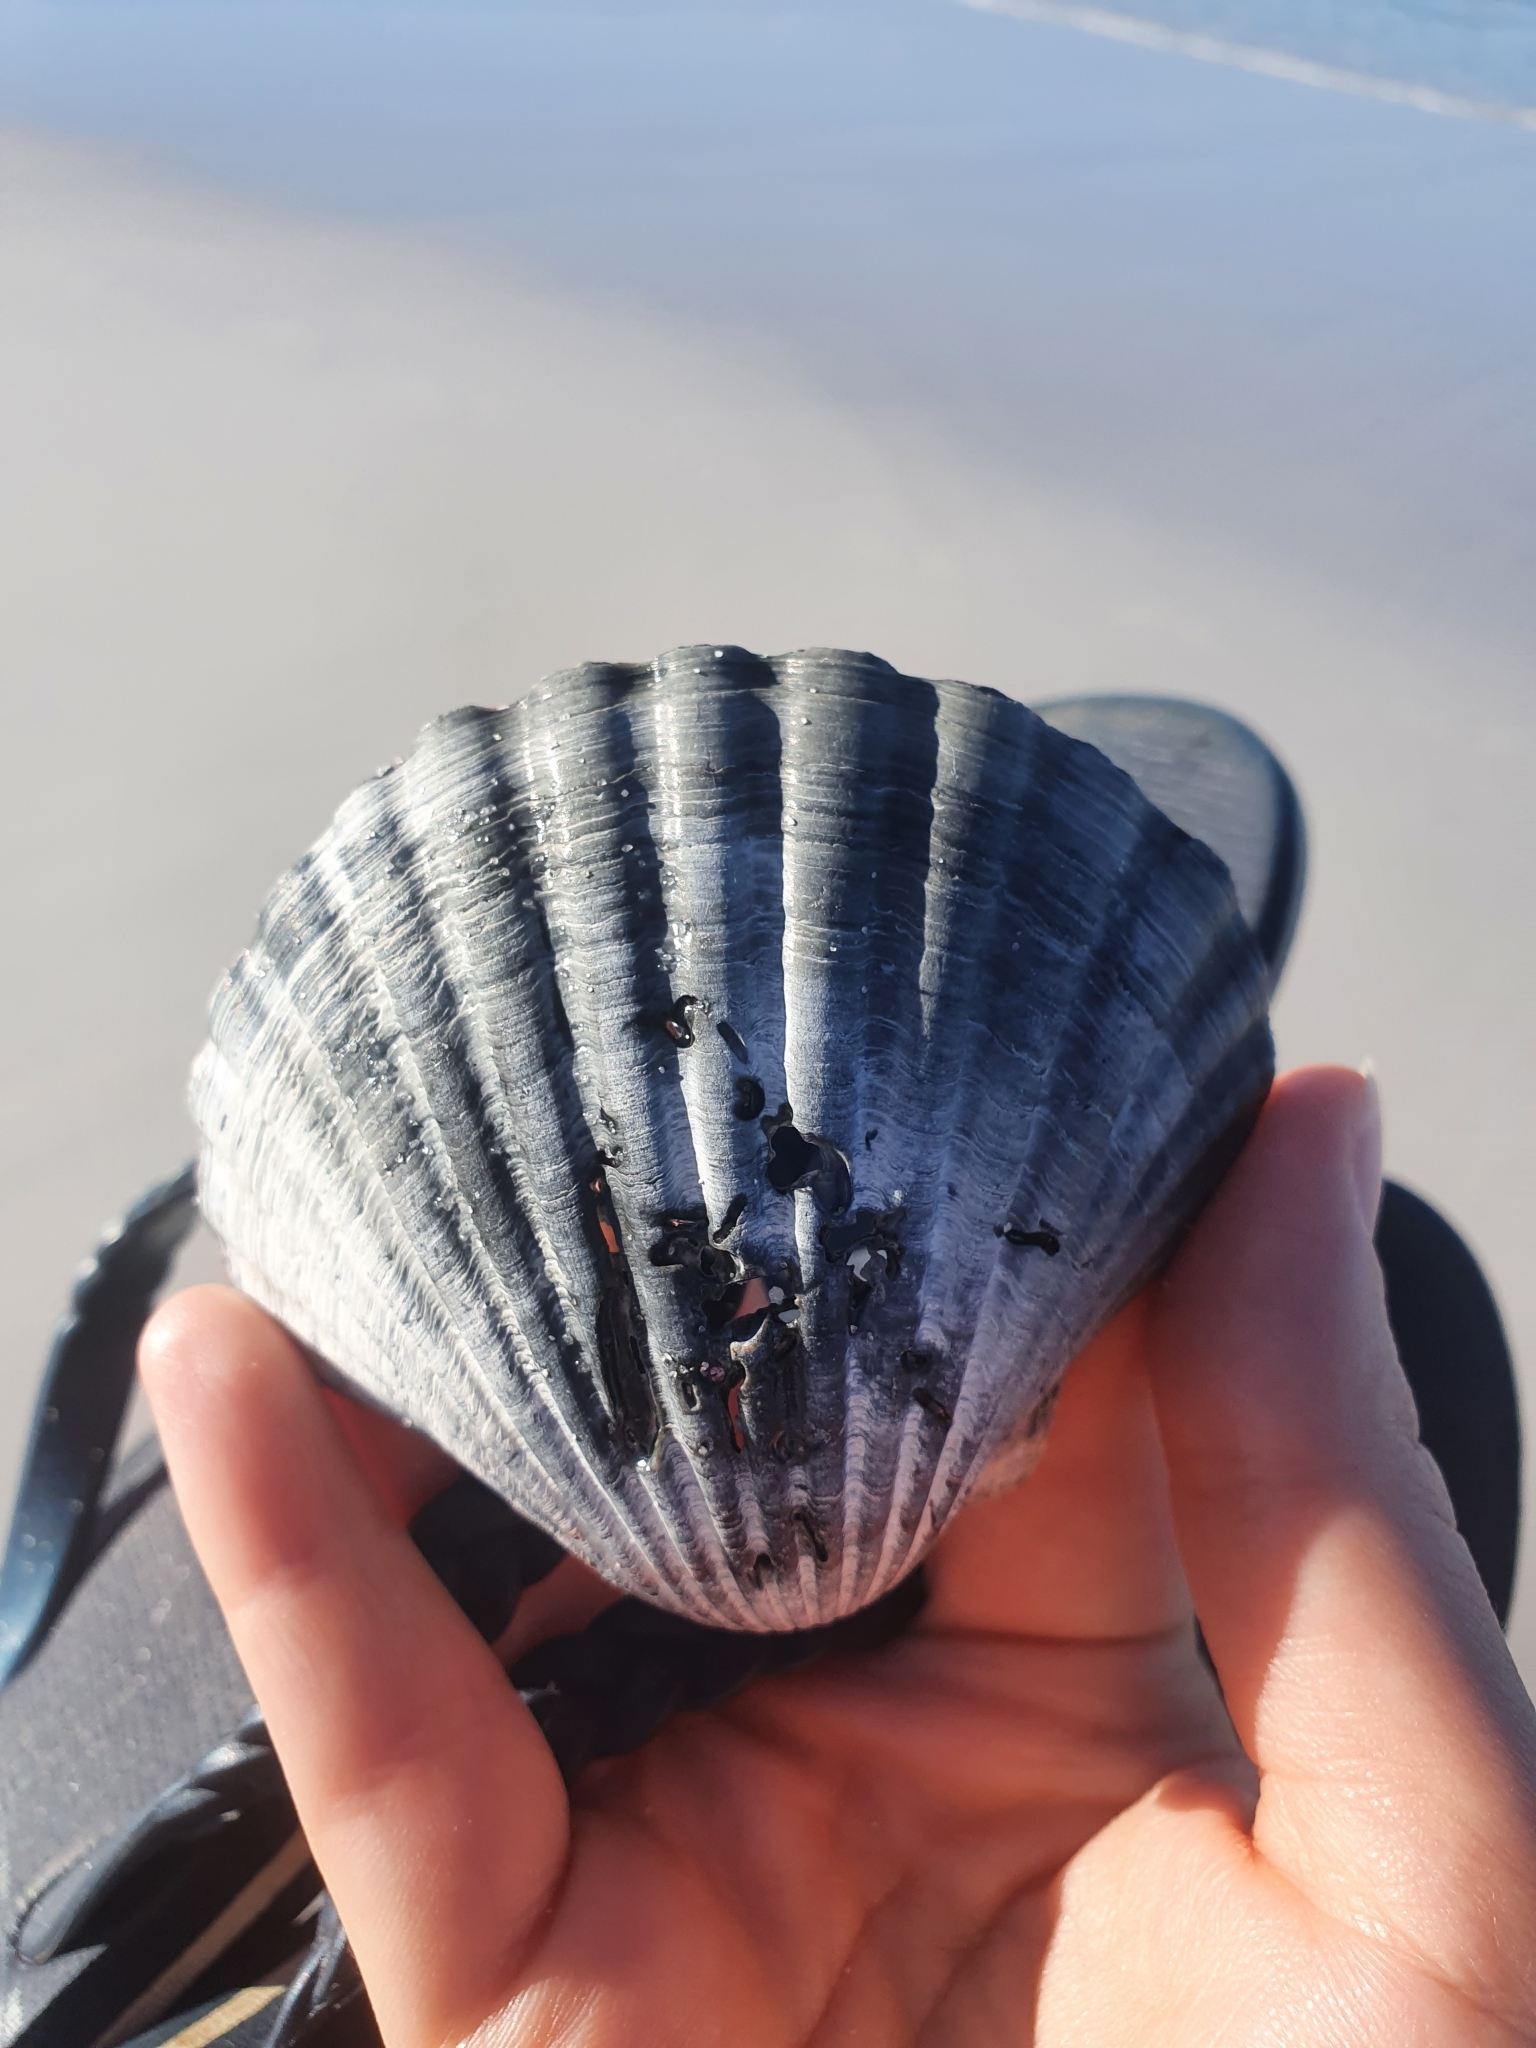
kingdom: Animalia
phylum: Mollusca
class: Bivalvia
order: Pectinida
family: Pectinidae
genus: Pecten
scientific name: Pecten fumatus
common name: Australian scallop
